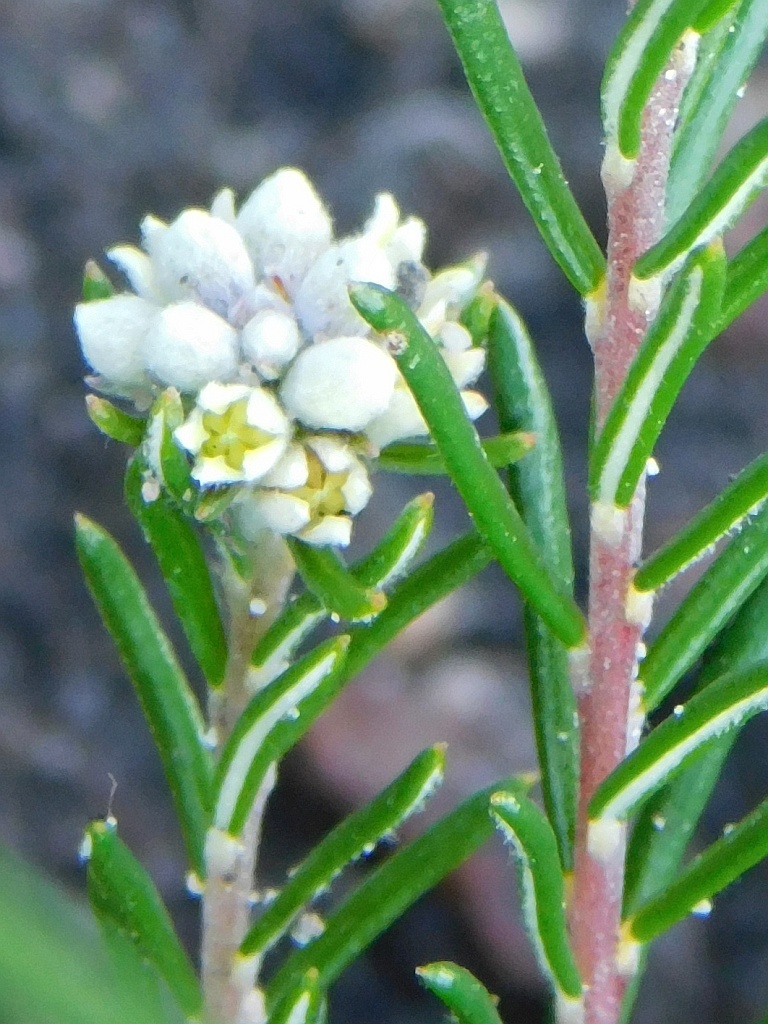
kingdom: Plantae
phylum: Tracheophyta
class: Magnoliopsida
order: Rosales
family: Rhamnaceae
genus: Phylica
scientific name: Phylica imberbis
